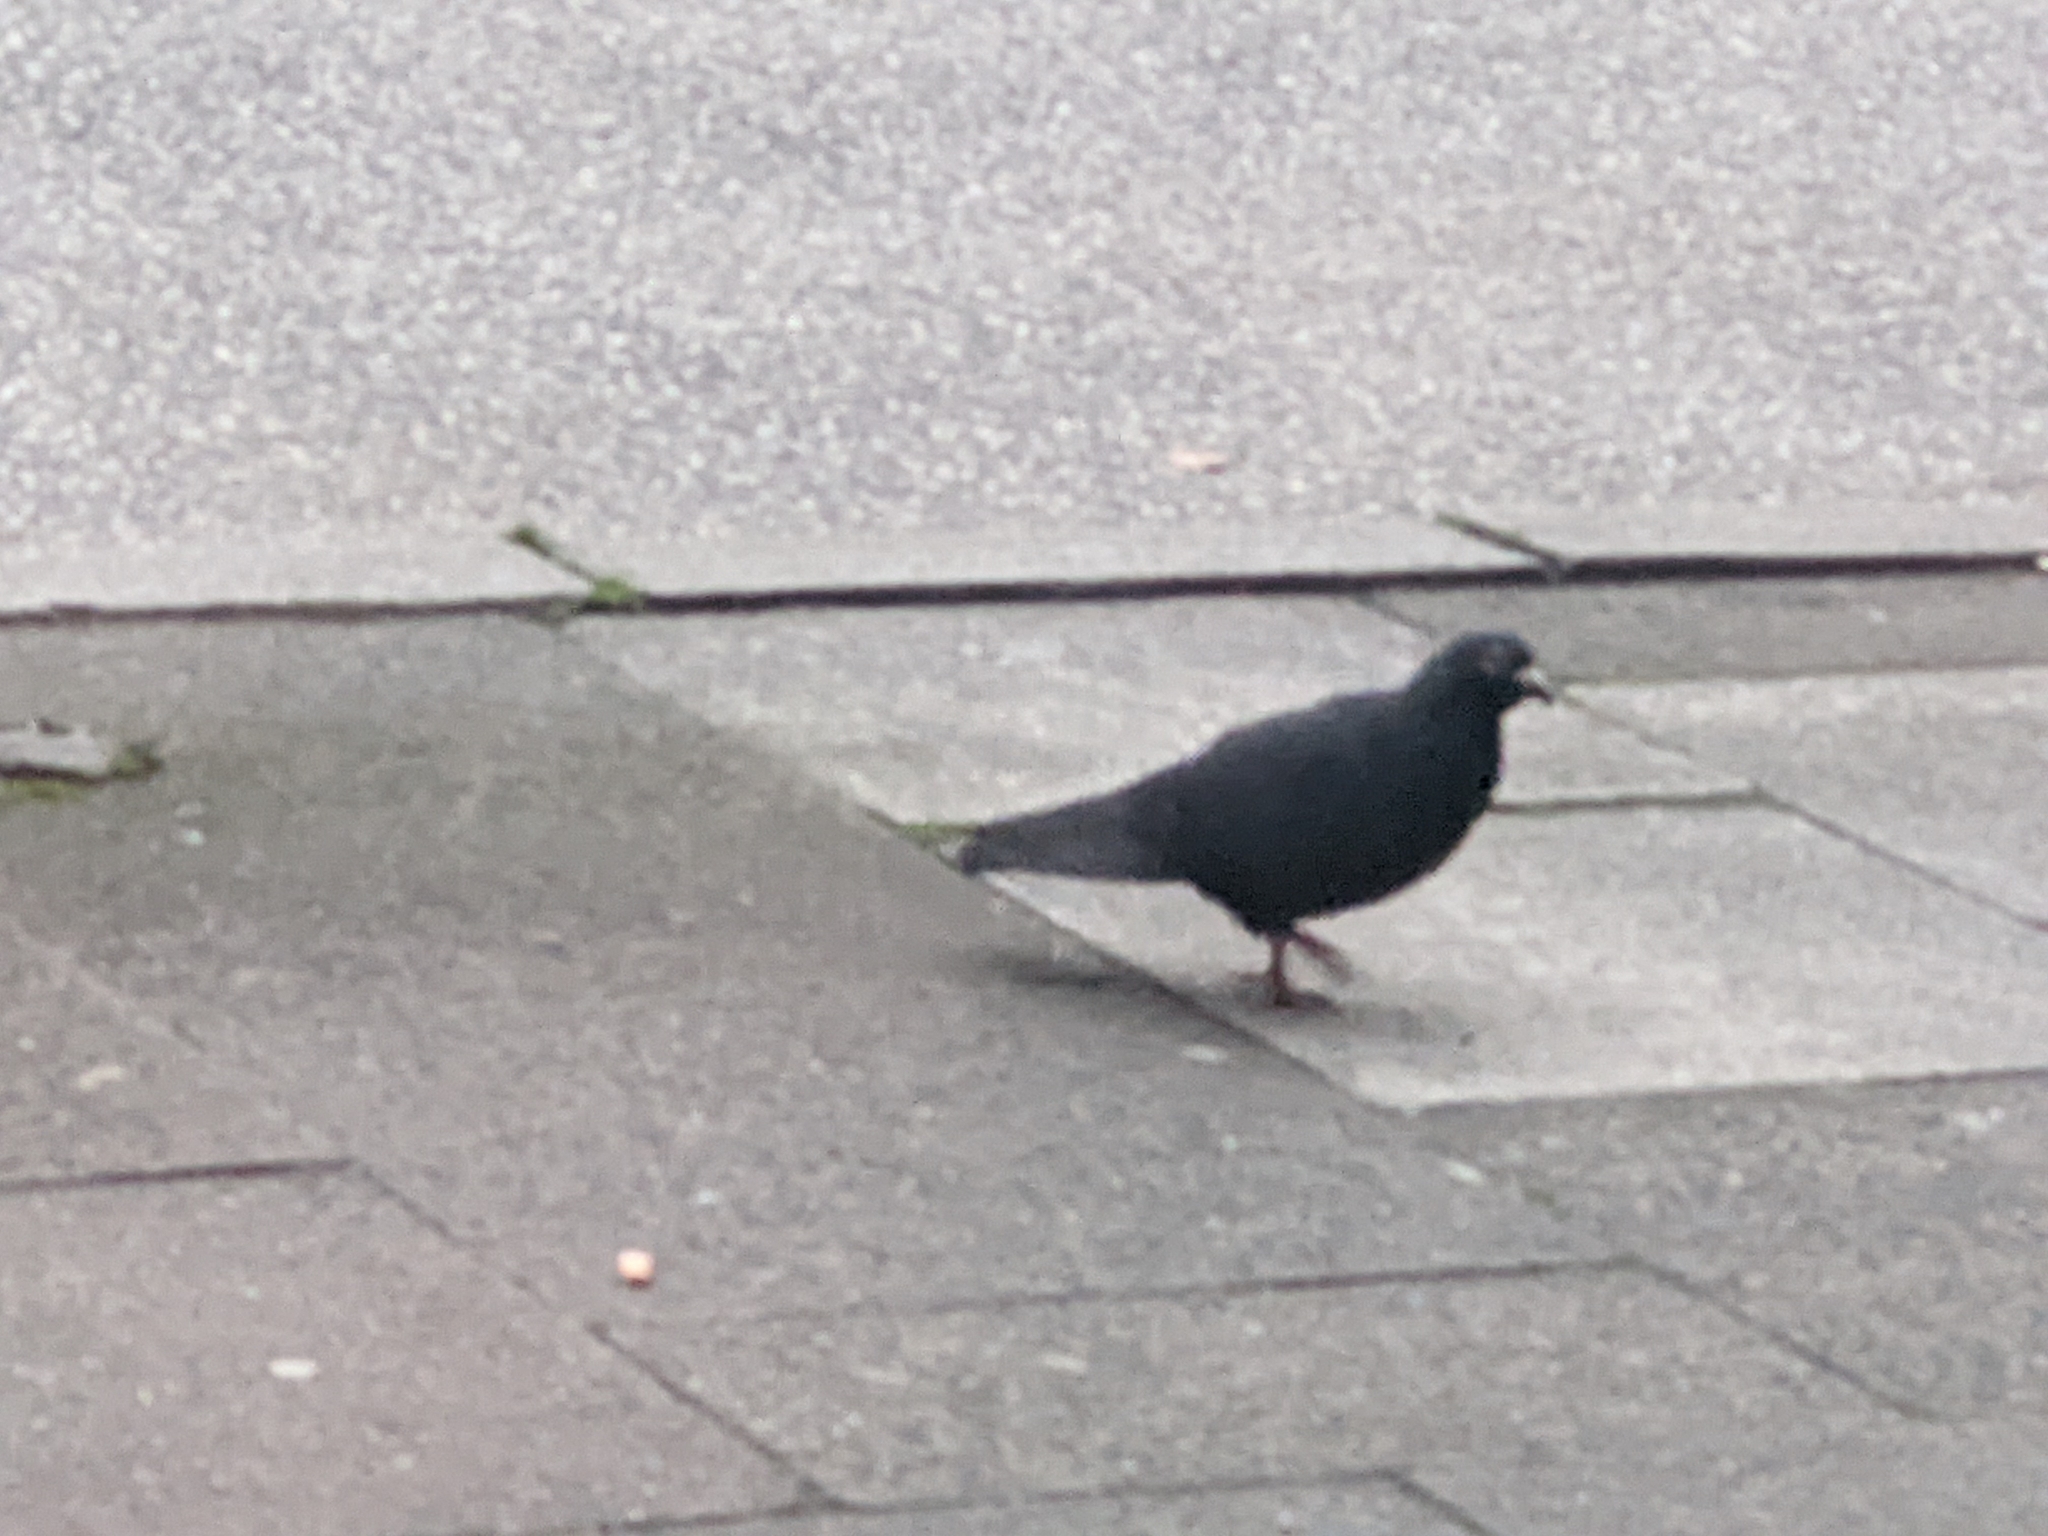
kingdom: Animalia
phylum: Chordata
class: Aves
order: Columbiformes
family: Columbidae
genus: Columba
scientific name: Columba livia
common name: Rock pigeon
